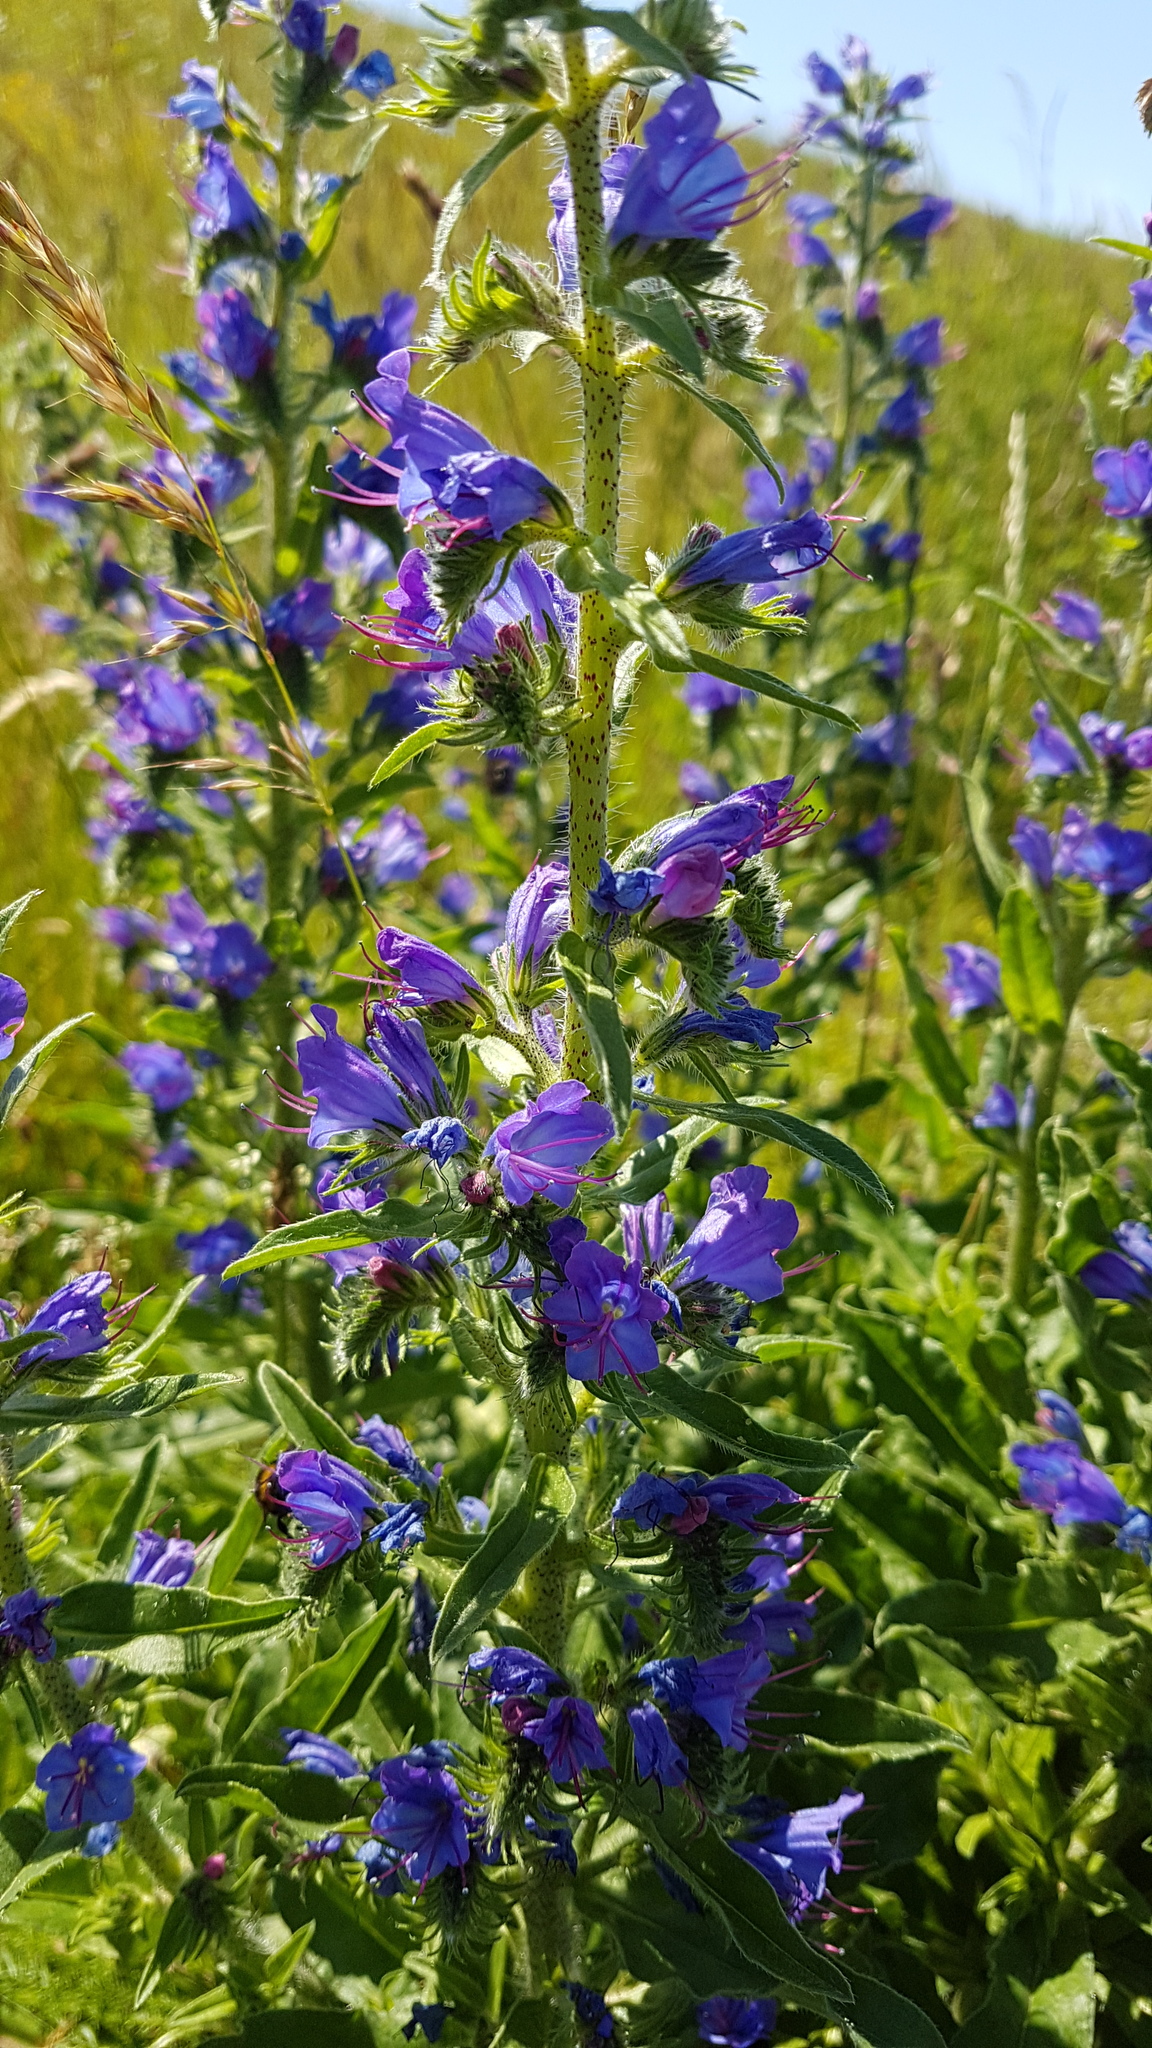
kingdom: Plantae
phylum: Tracheophyta
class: Magnoliopsida
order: Boraginales
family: Boraginaceae
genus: Echium
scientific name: Echium vulgare
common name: Common viper's bugloss
